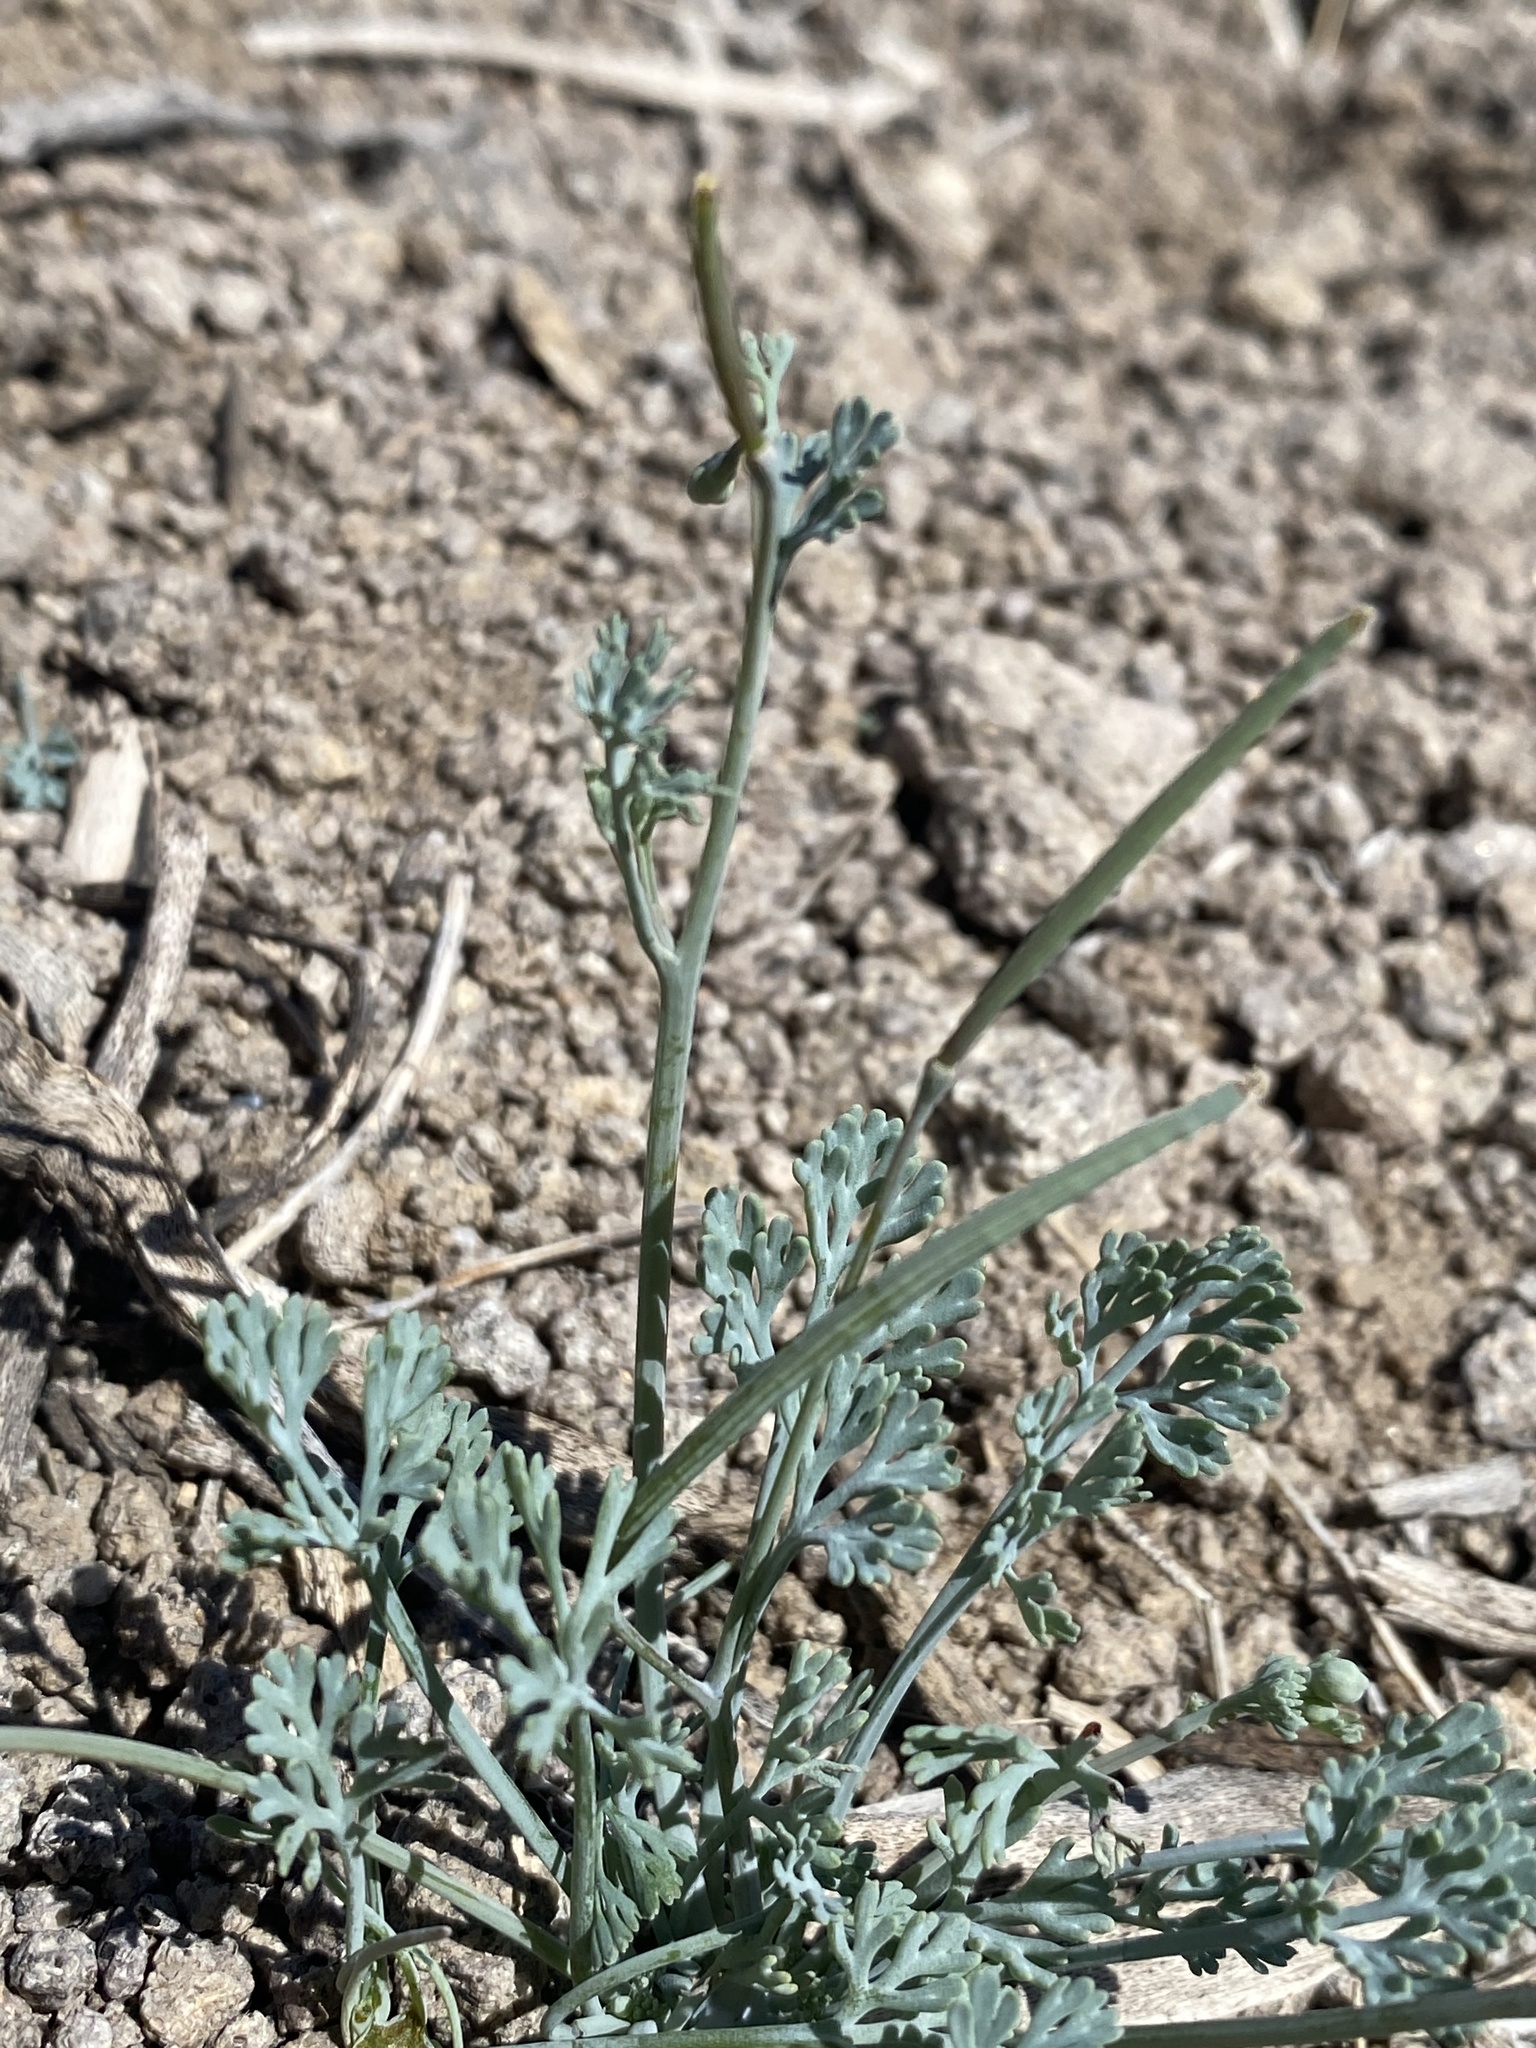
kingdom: Plantae
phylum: Tracheophyta
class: Magnoliopsida
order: Ranunculales
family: Papaveraceae
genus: Eschscholzia
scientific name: Eschscholzia minutiflora
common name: Small-flower california-poppy
